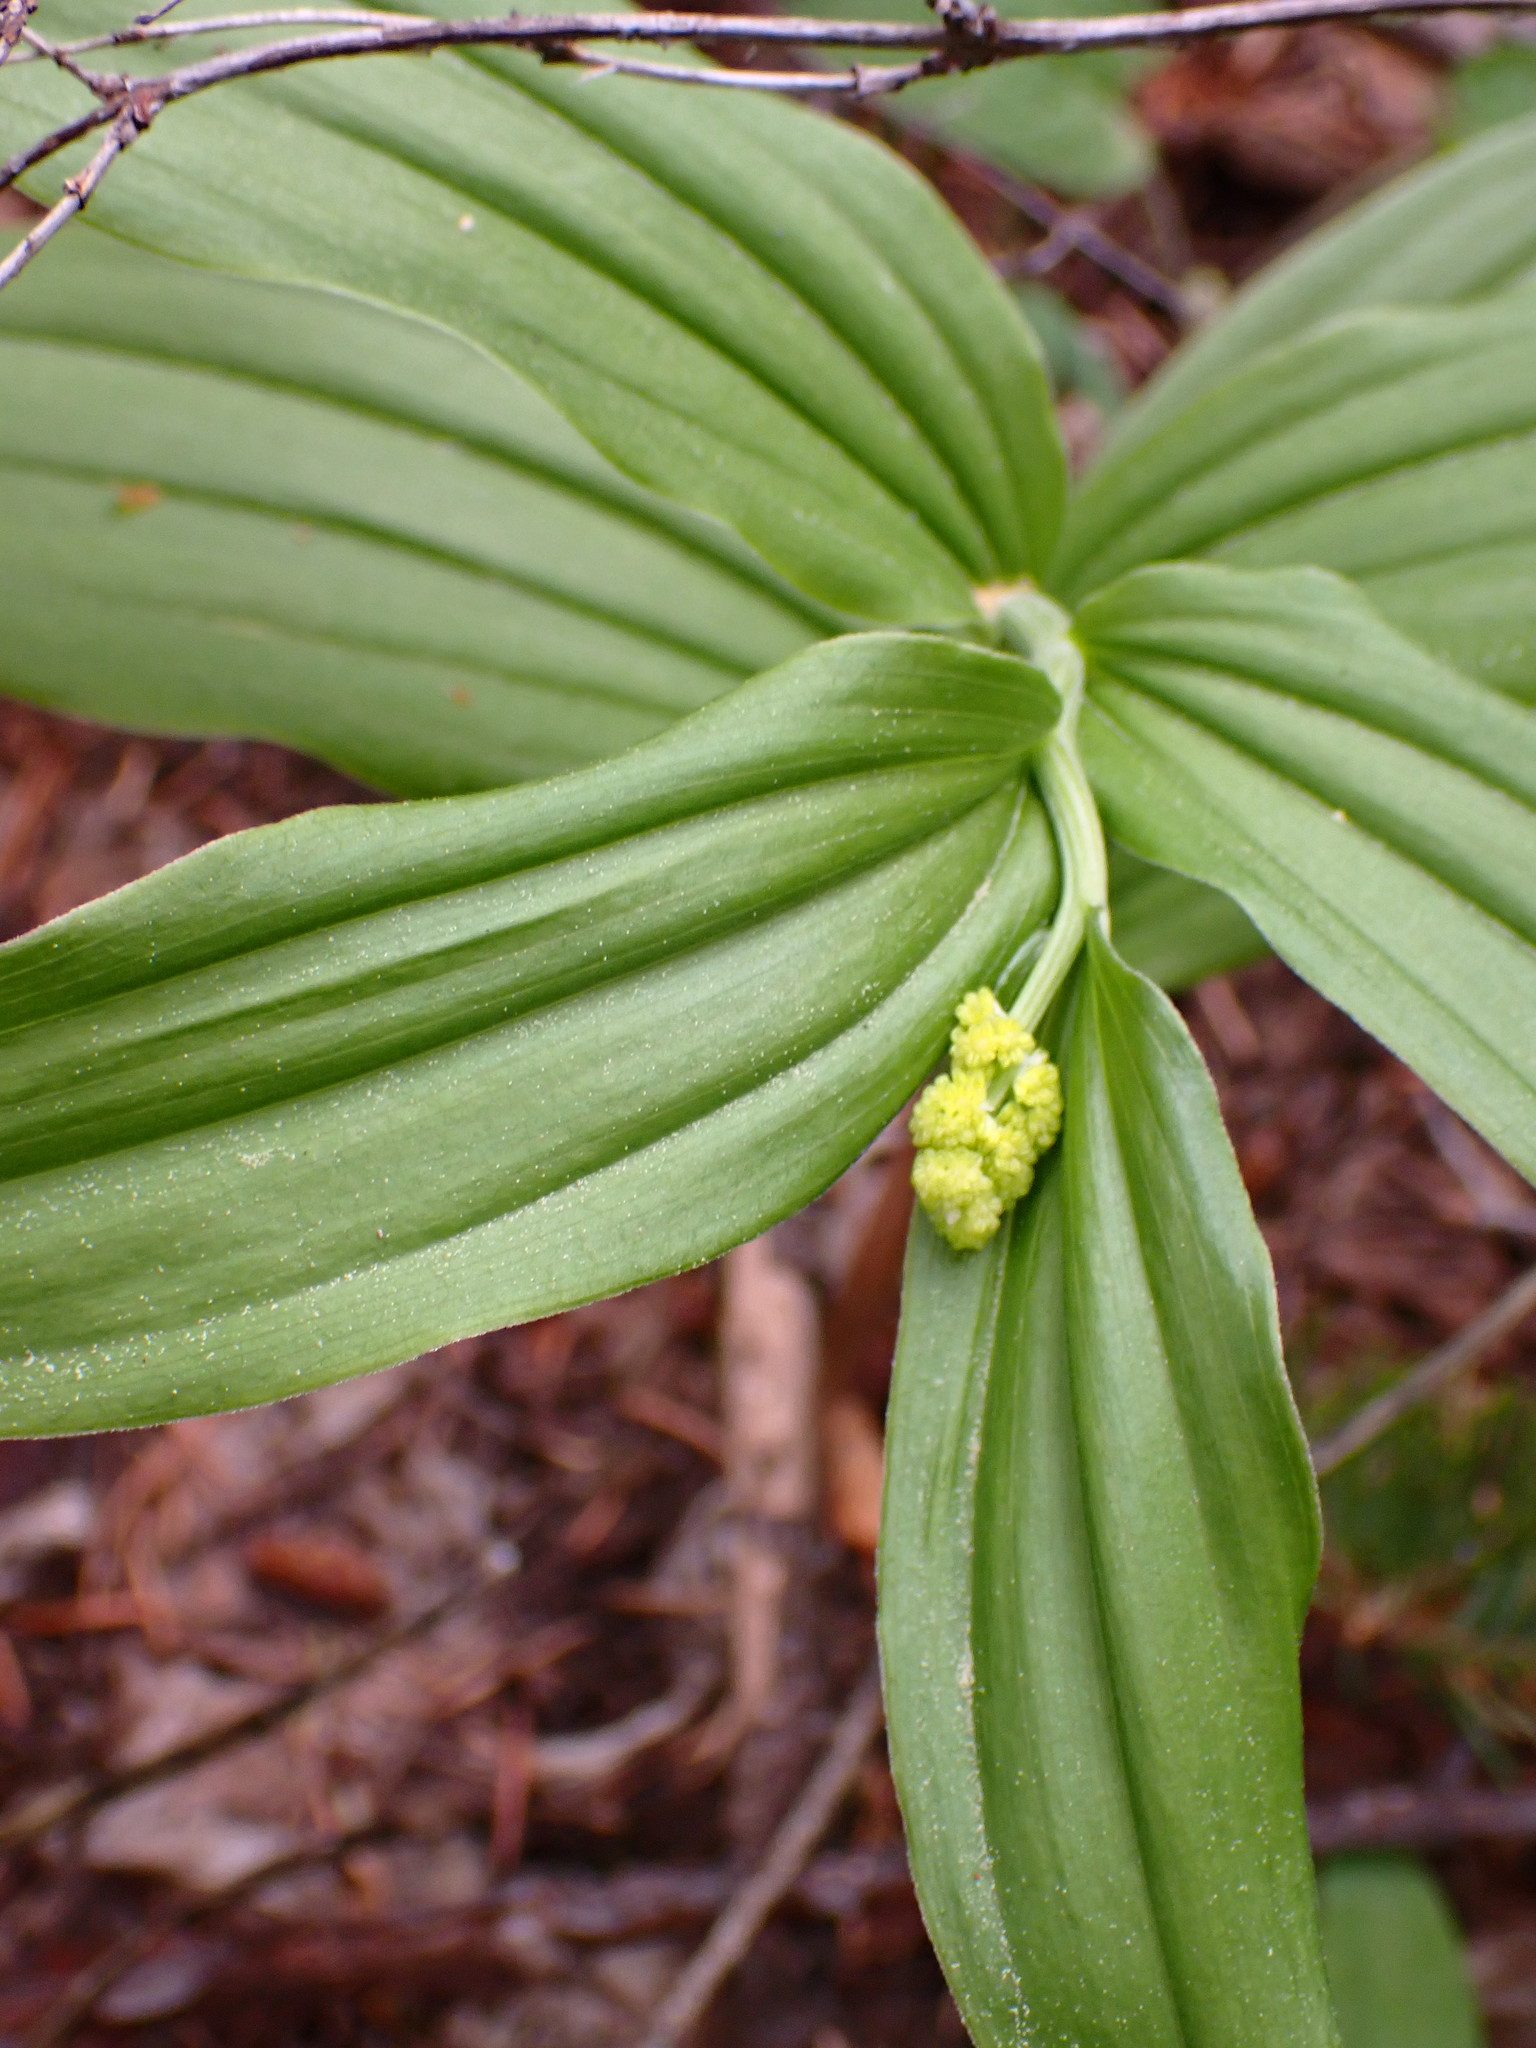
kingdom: Plantae
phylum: Tracheophyta
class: Liliopsida
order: Asparagales
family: Asparagaceae
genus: Maianthemum
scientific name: Maianthemum racemosum
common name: False spikenard
